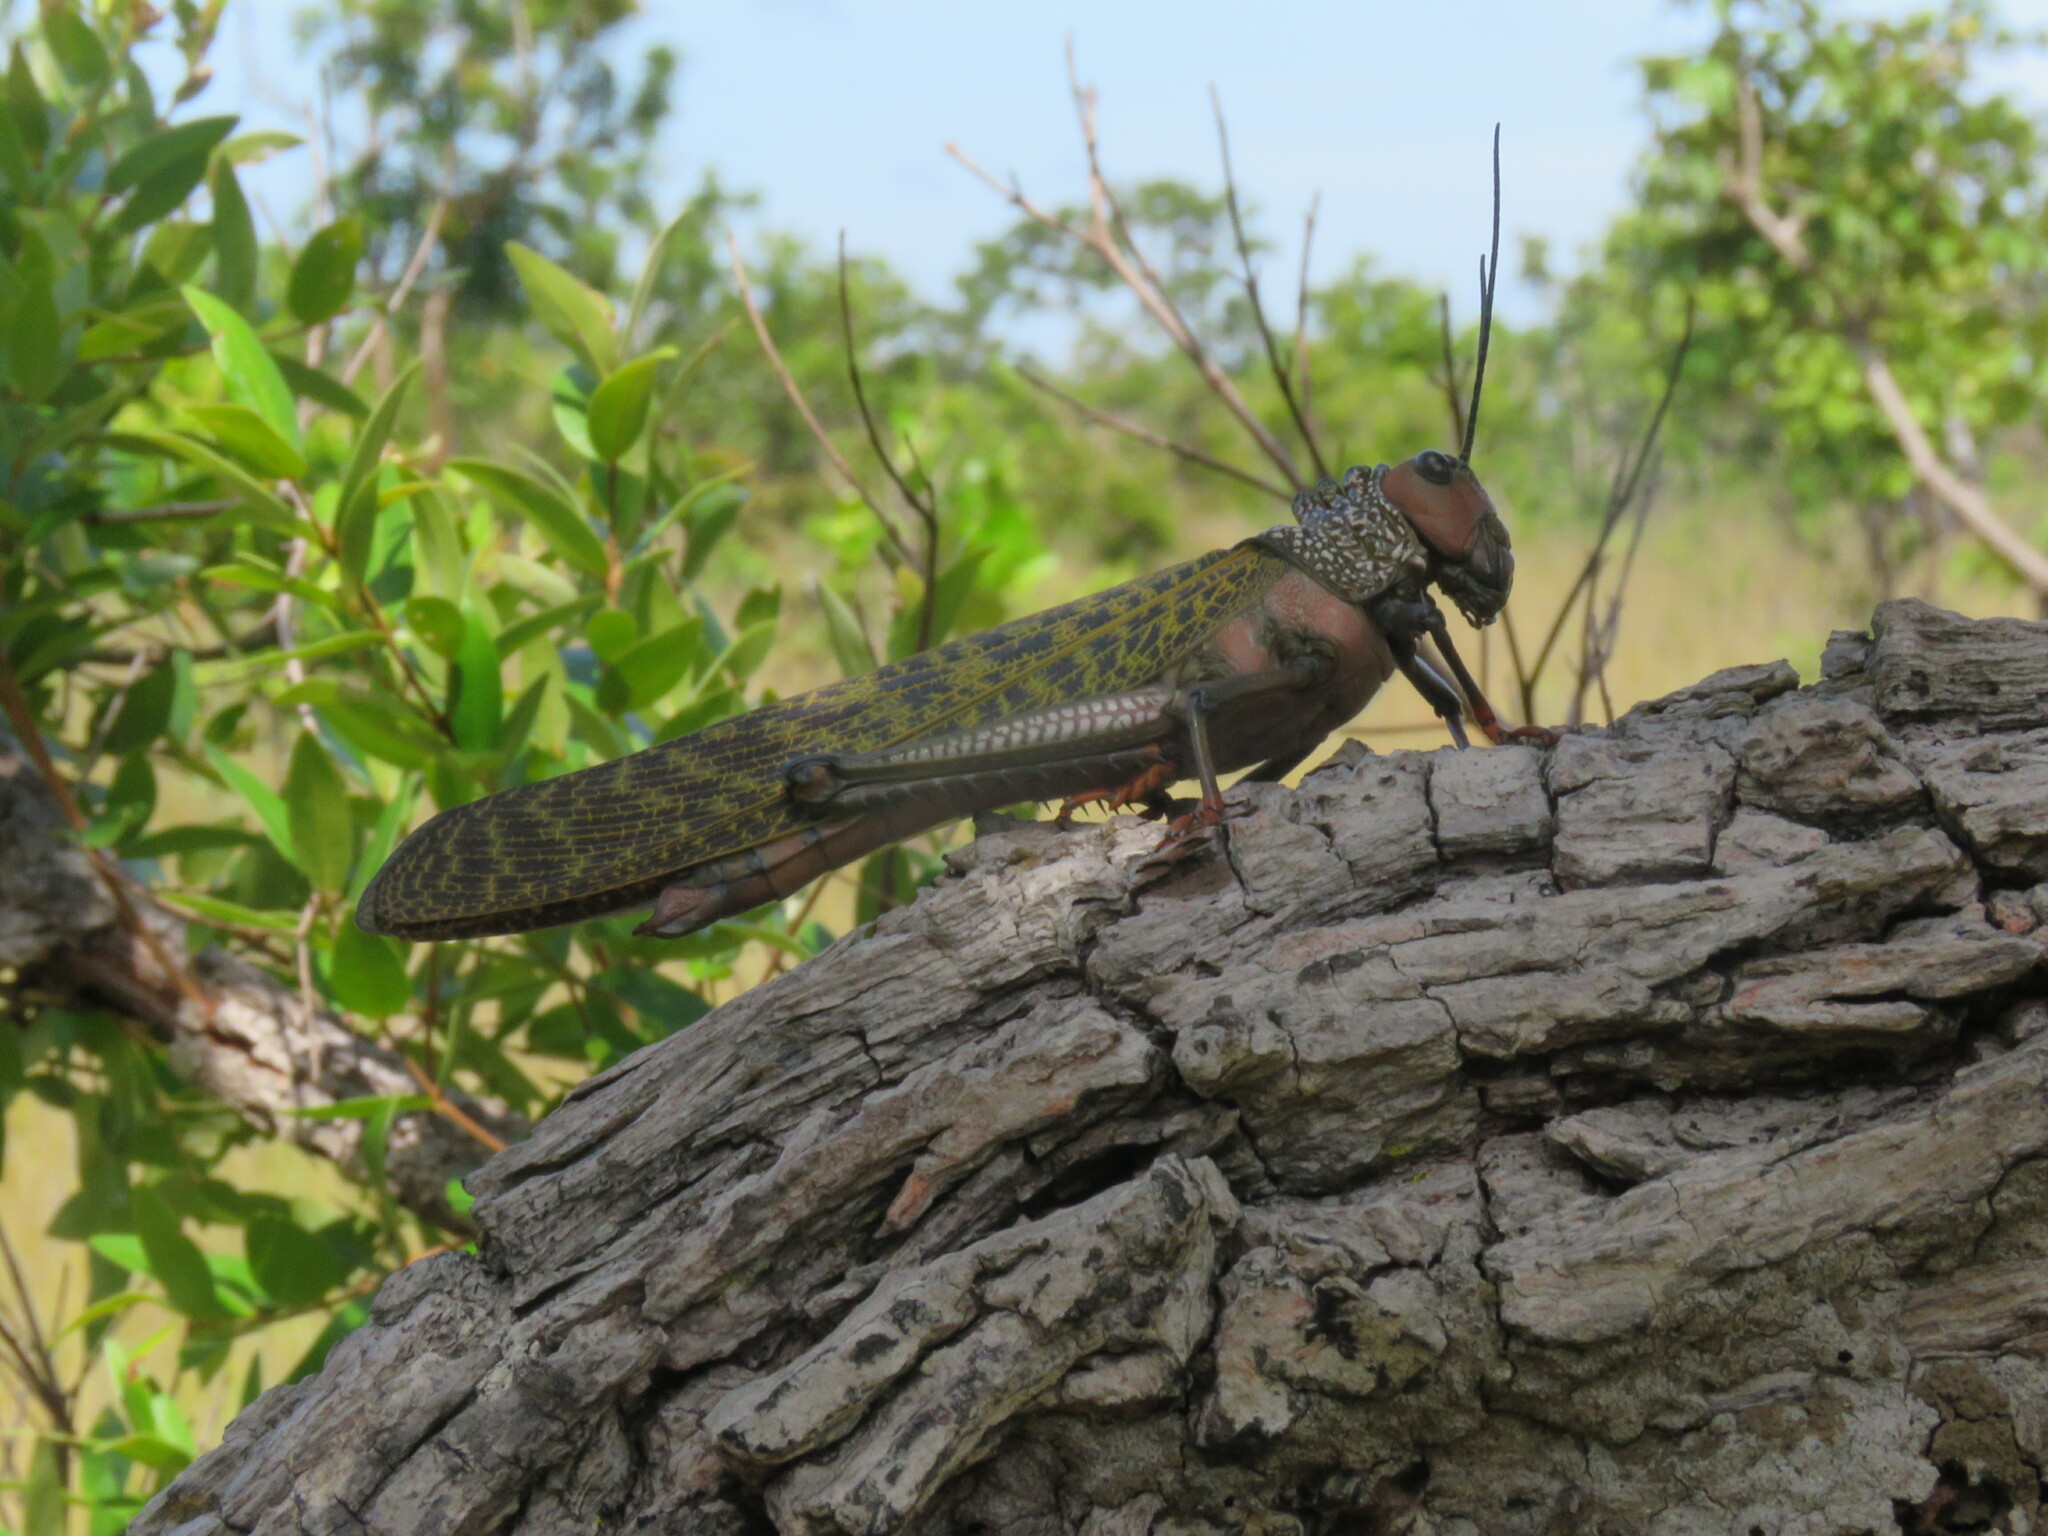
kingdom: Animalia
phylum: Arthropoda
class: Insecta
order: Orthoptera
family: Romaleidae
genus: Tropidacris
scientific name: Tropidacris cristata
